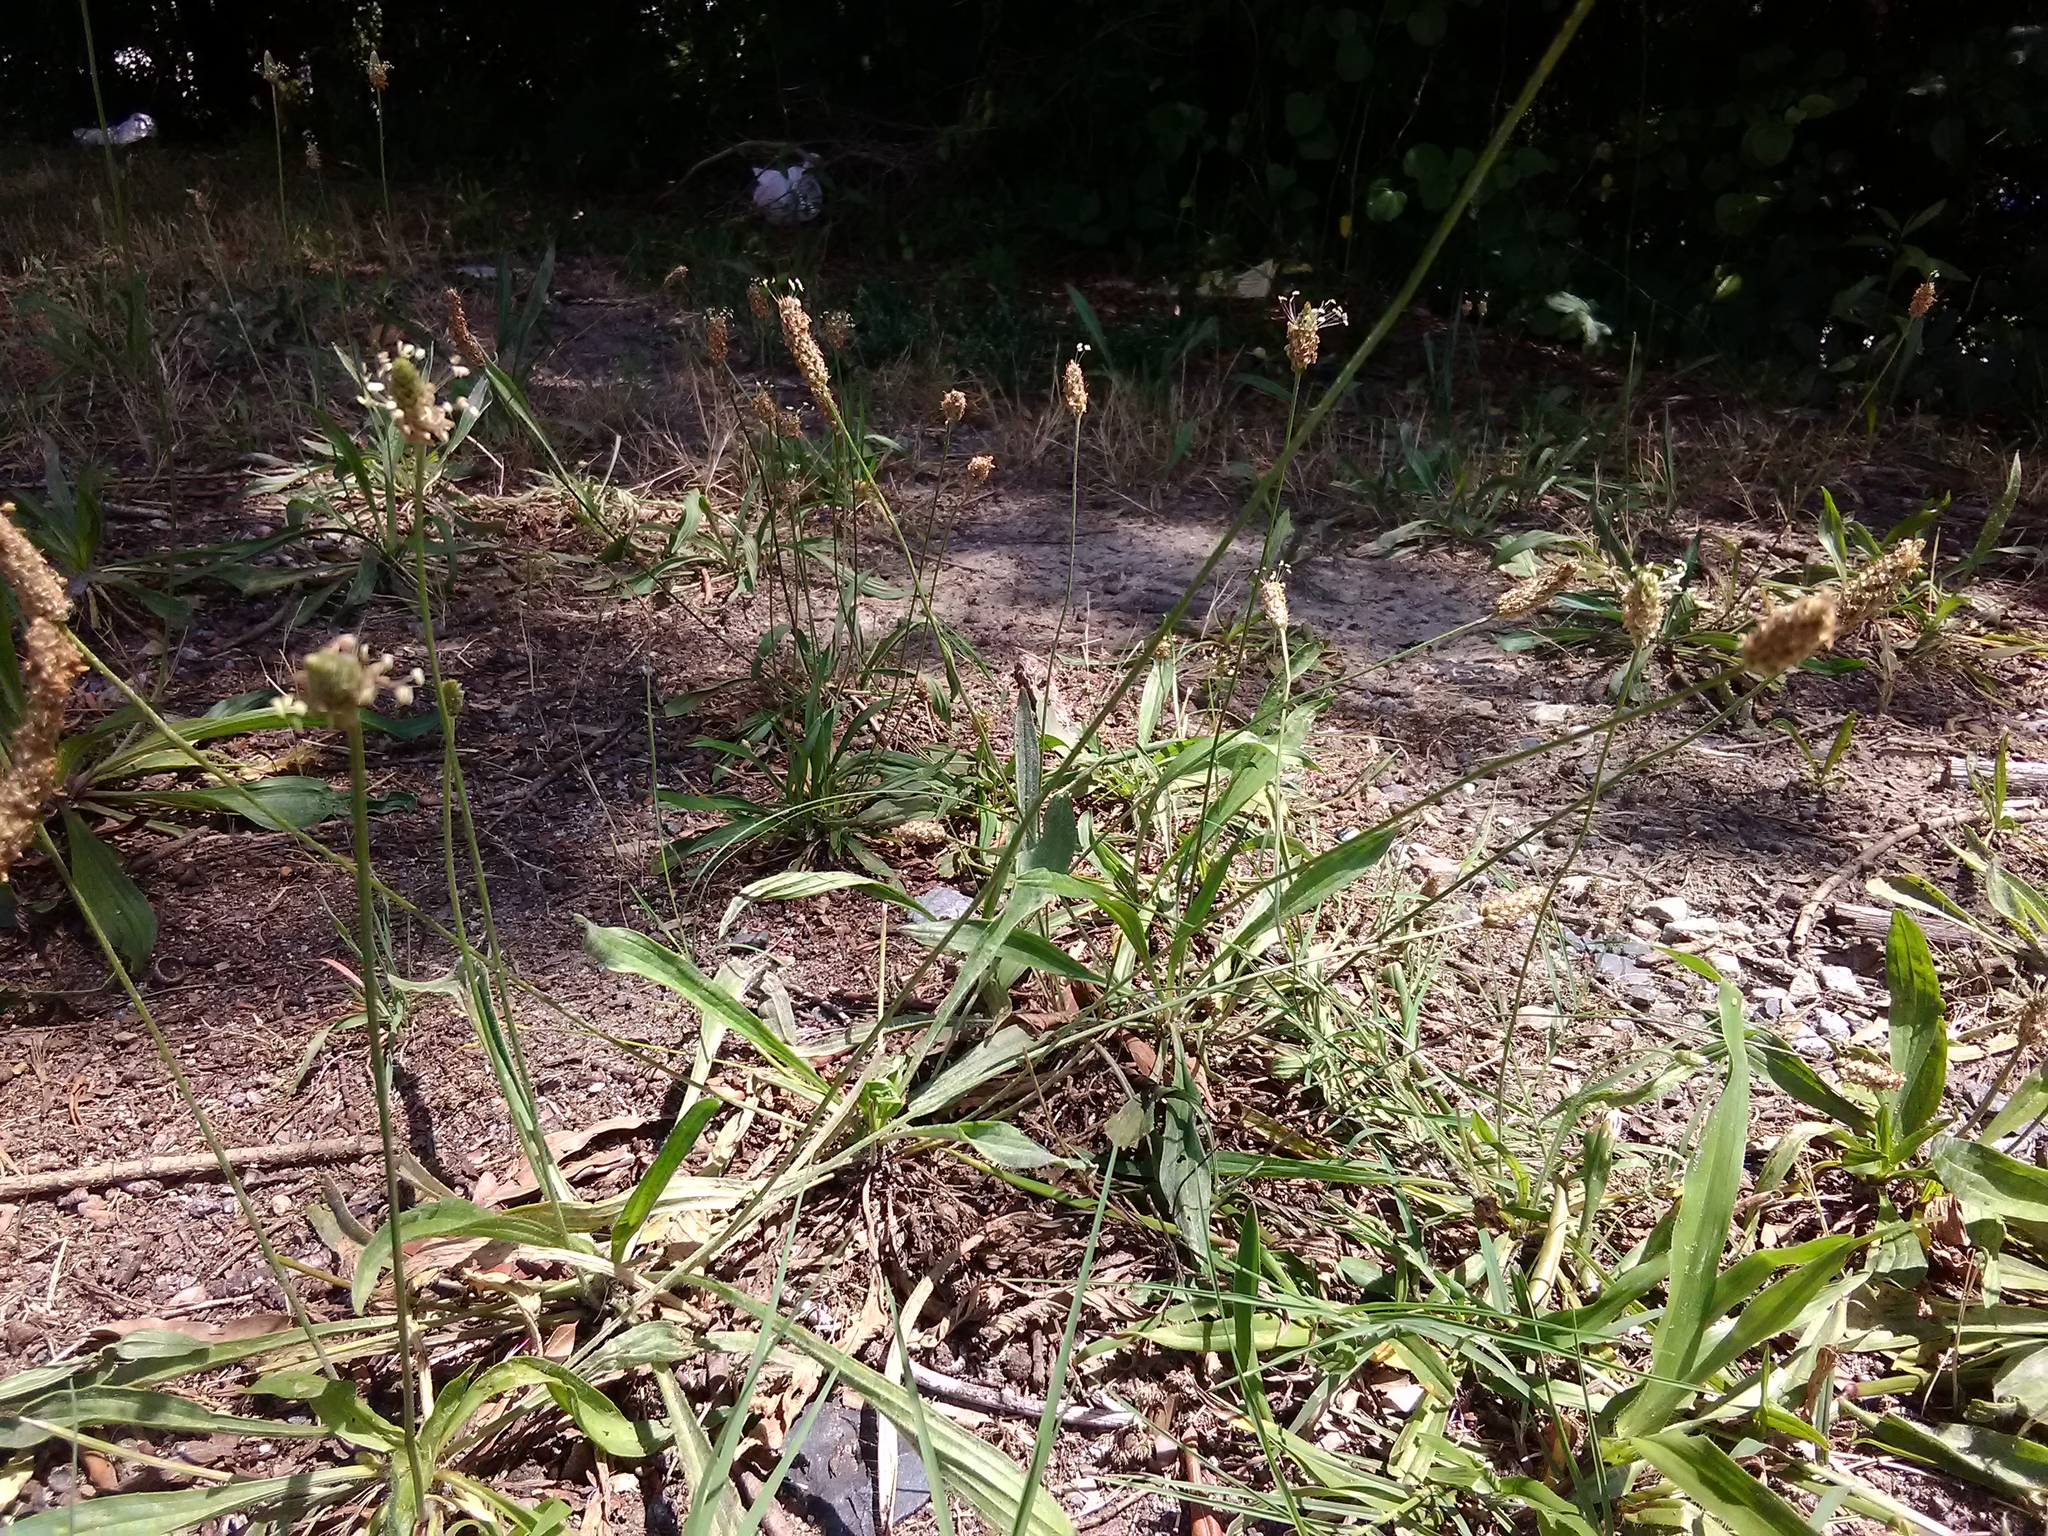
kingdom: Plantae
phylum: Tracheophyta
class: Magnoliopsida
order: Lamiales
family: Plantaginaceae
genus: Plantago
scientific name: Plantago lanceolata
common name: Ribwort plantain
